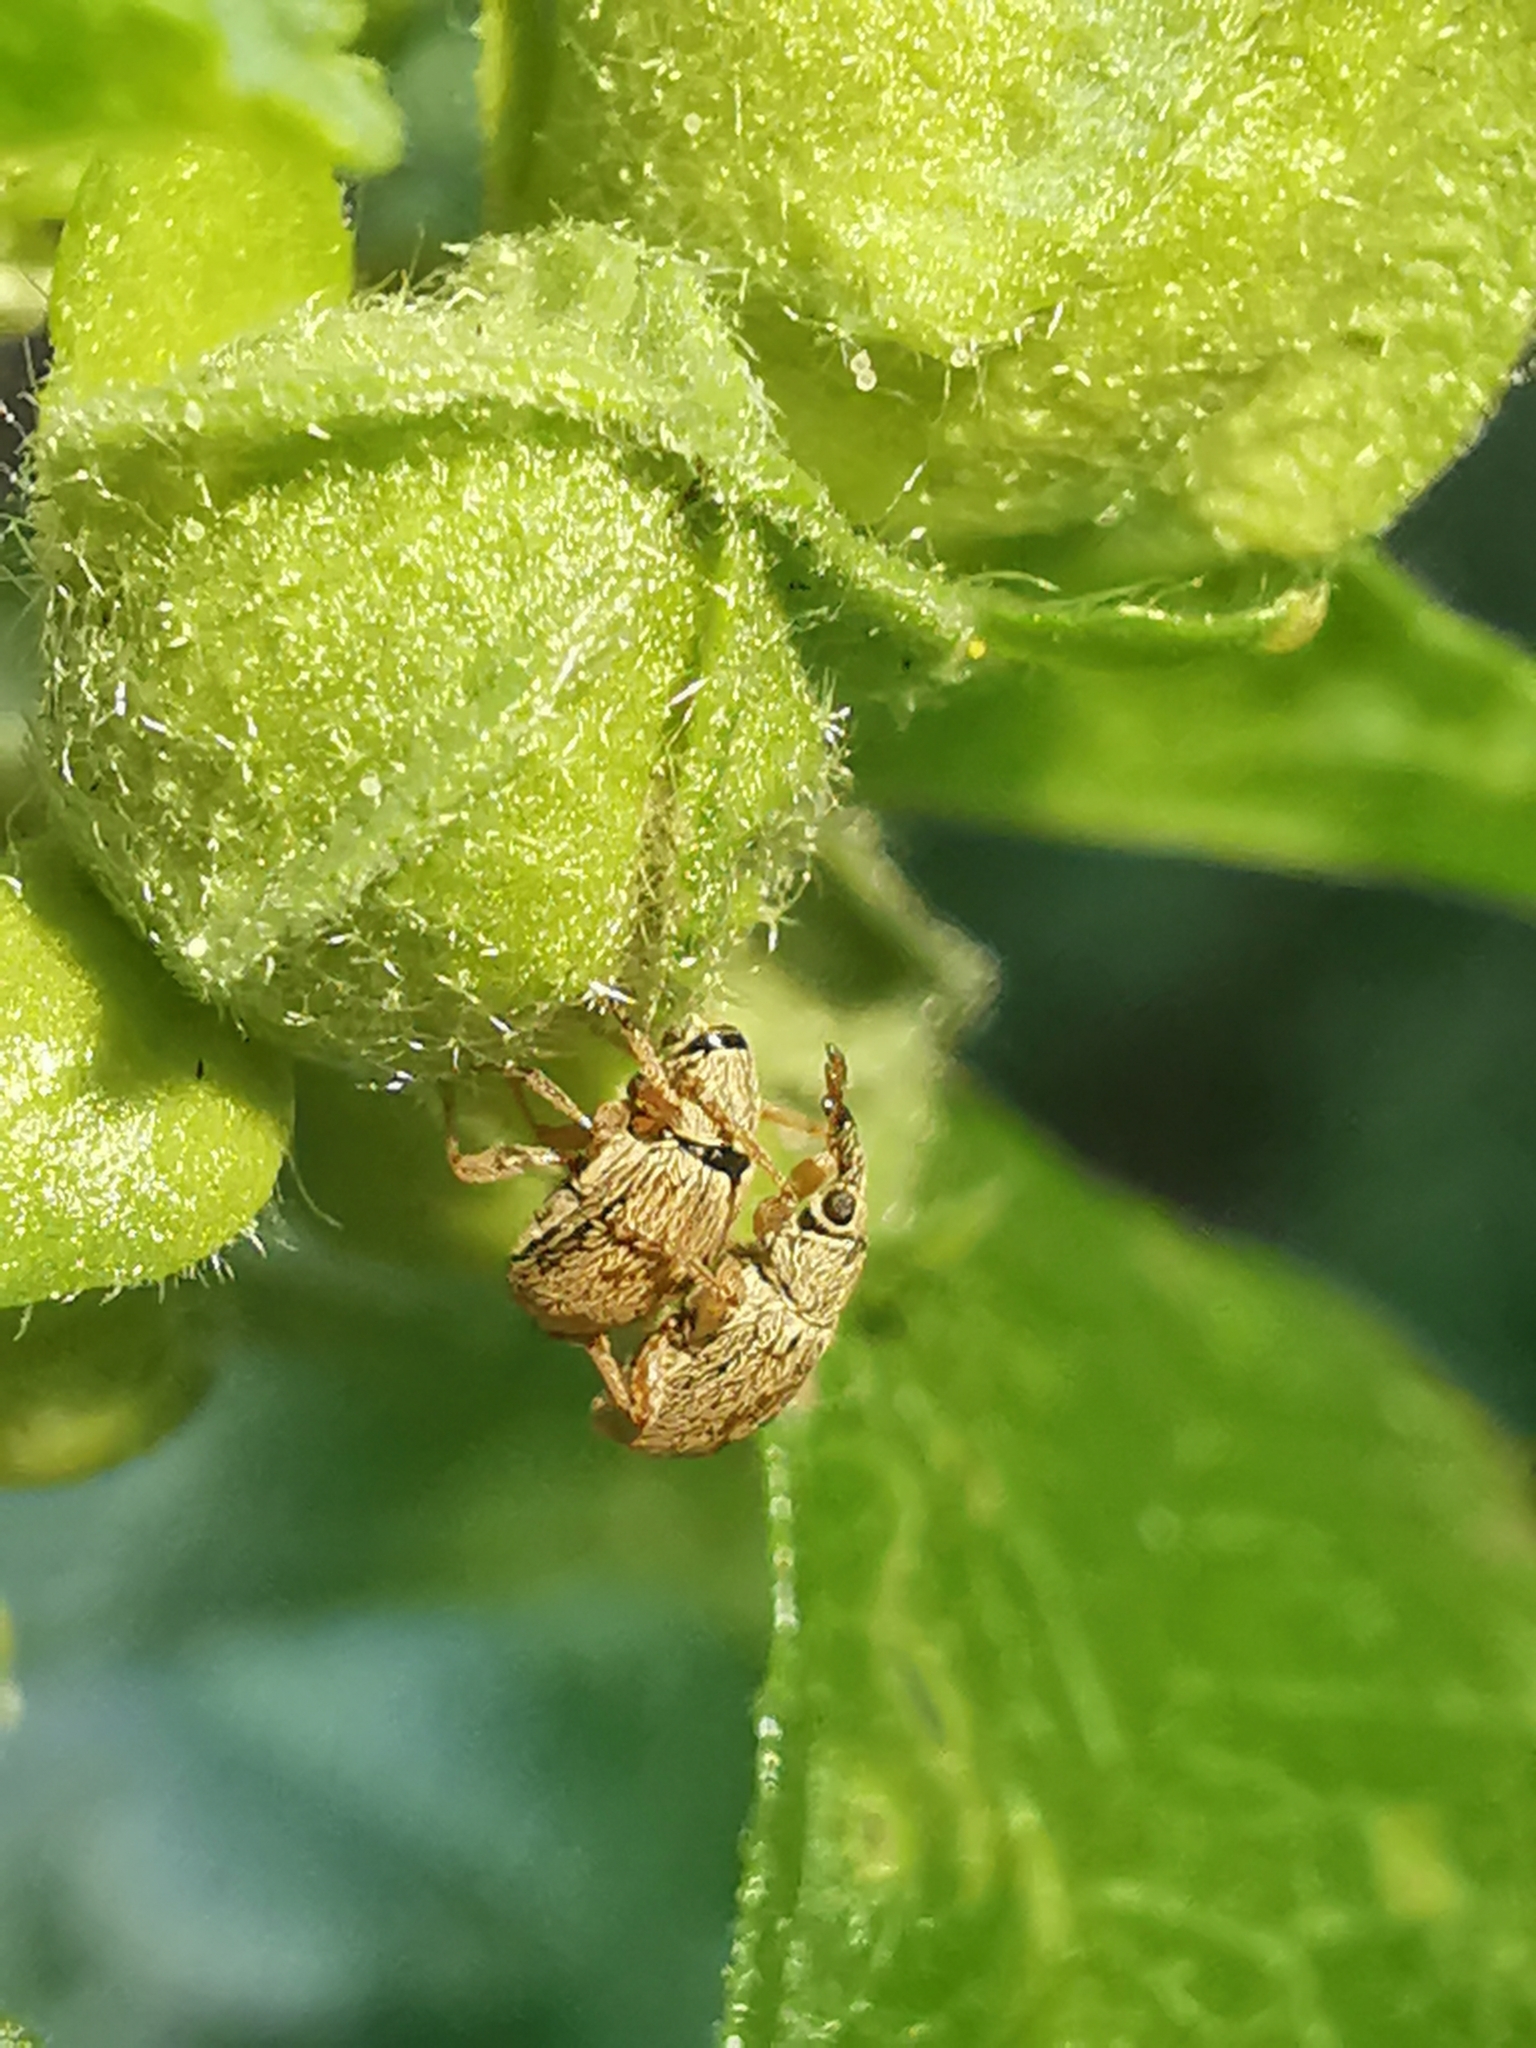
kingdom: Animalia
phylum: Arthropoda
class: Insecta
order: Coleoptera
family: Apionidae
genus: Malvapion
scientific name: Malvapion malvae
